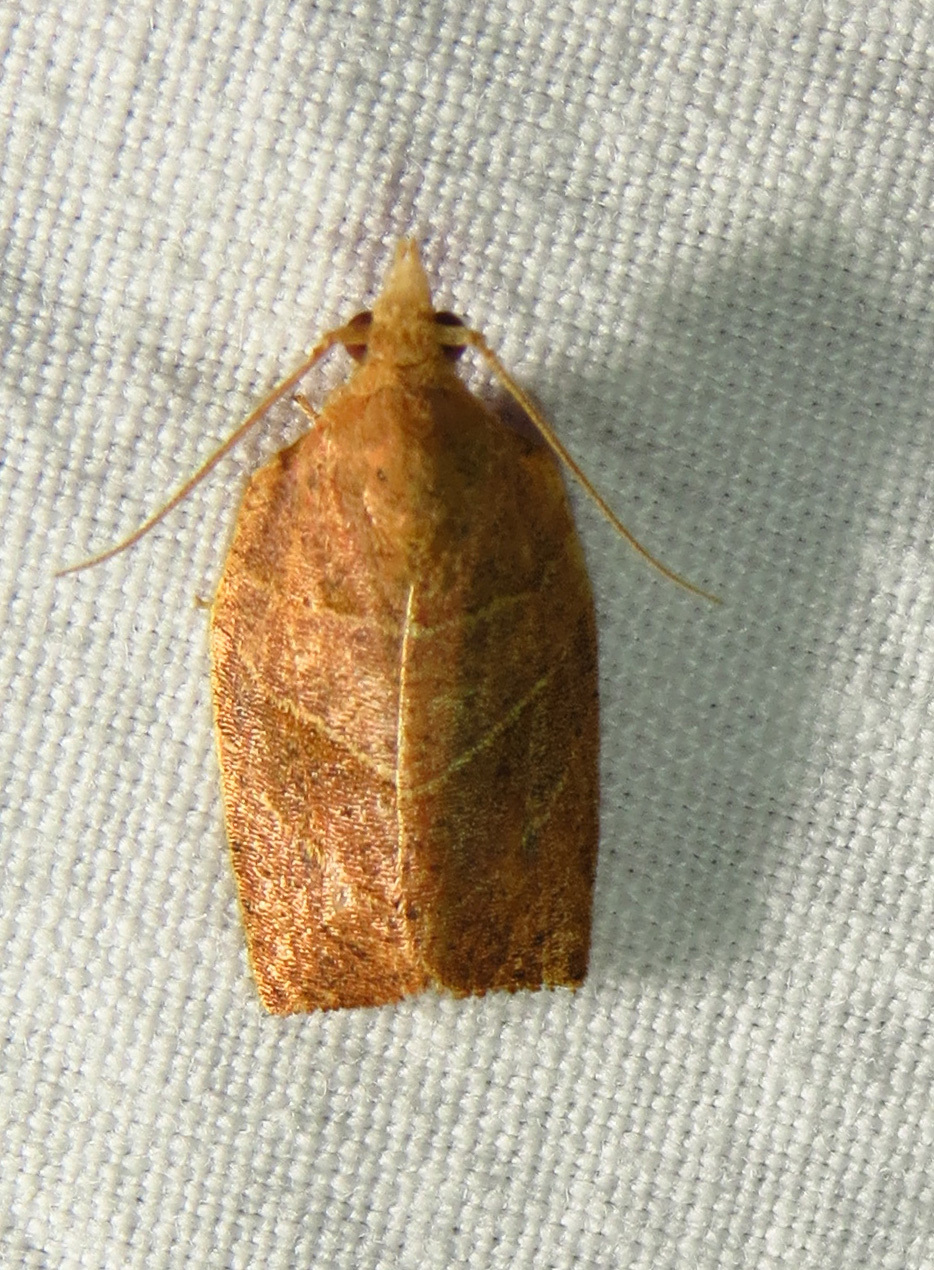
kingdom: Animalia
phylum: Arthropoda
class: Insecta
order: Lepidoptera
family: Tortricidae
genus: Pandemis
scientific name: Pandemis limitata
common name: Three-lined leafroller moth
